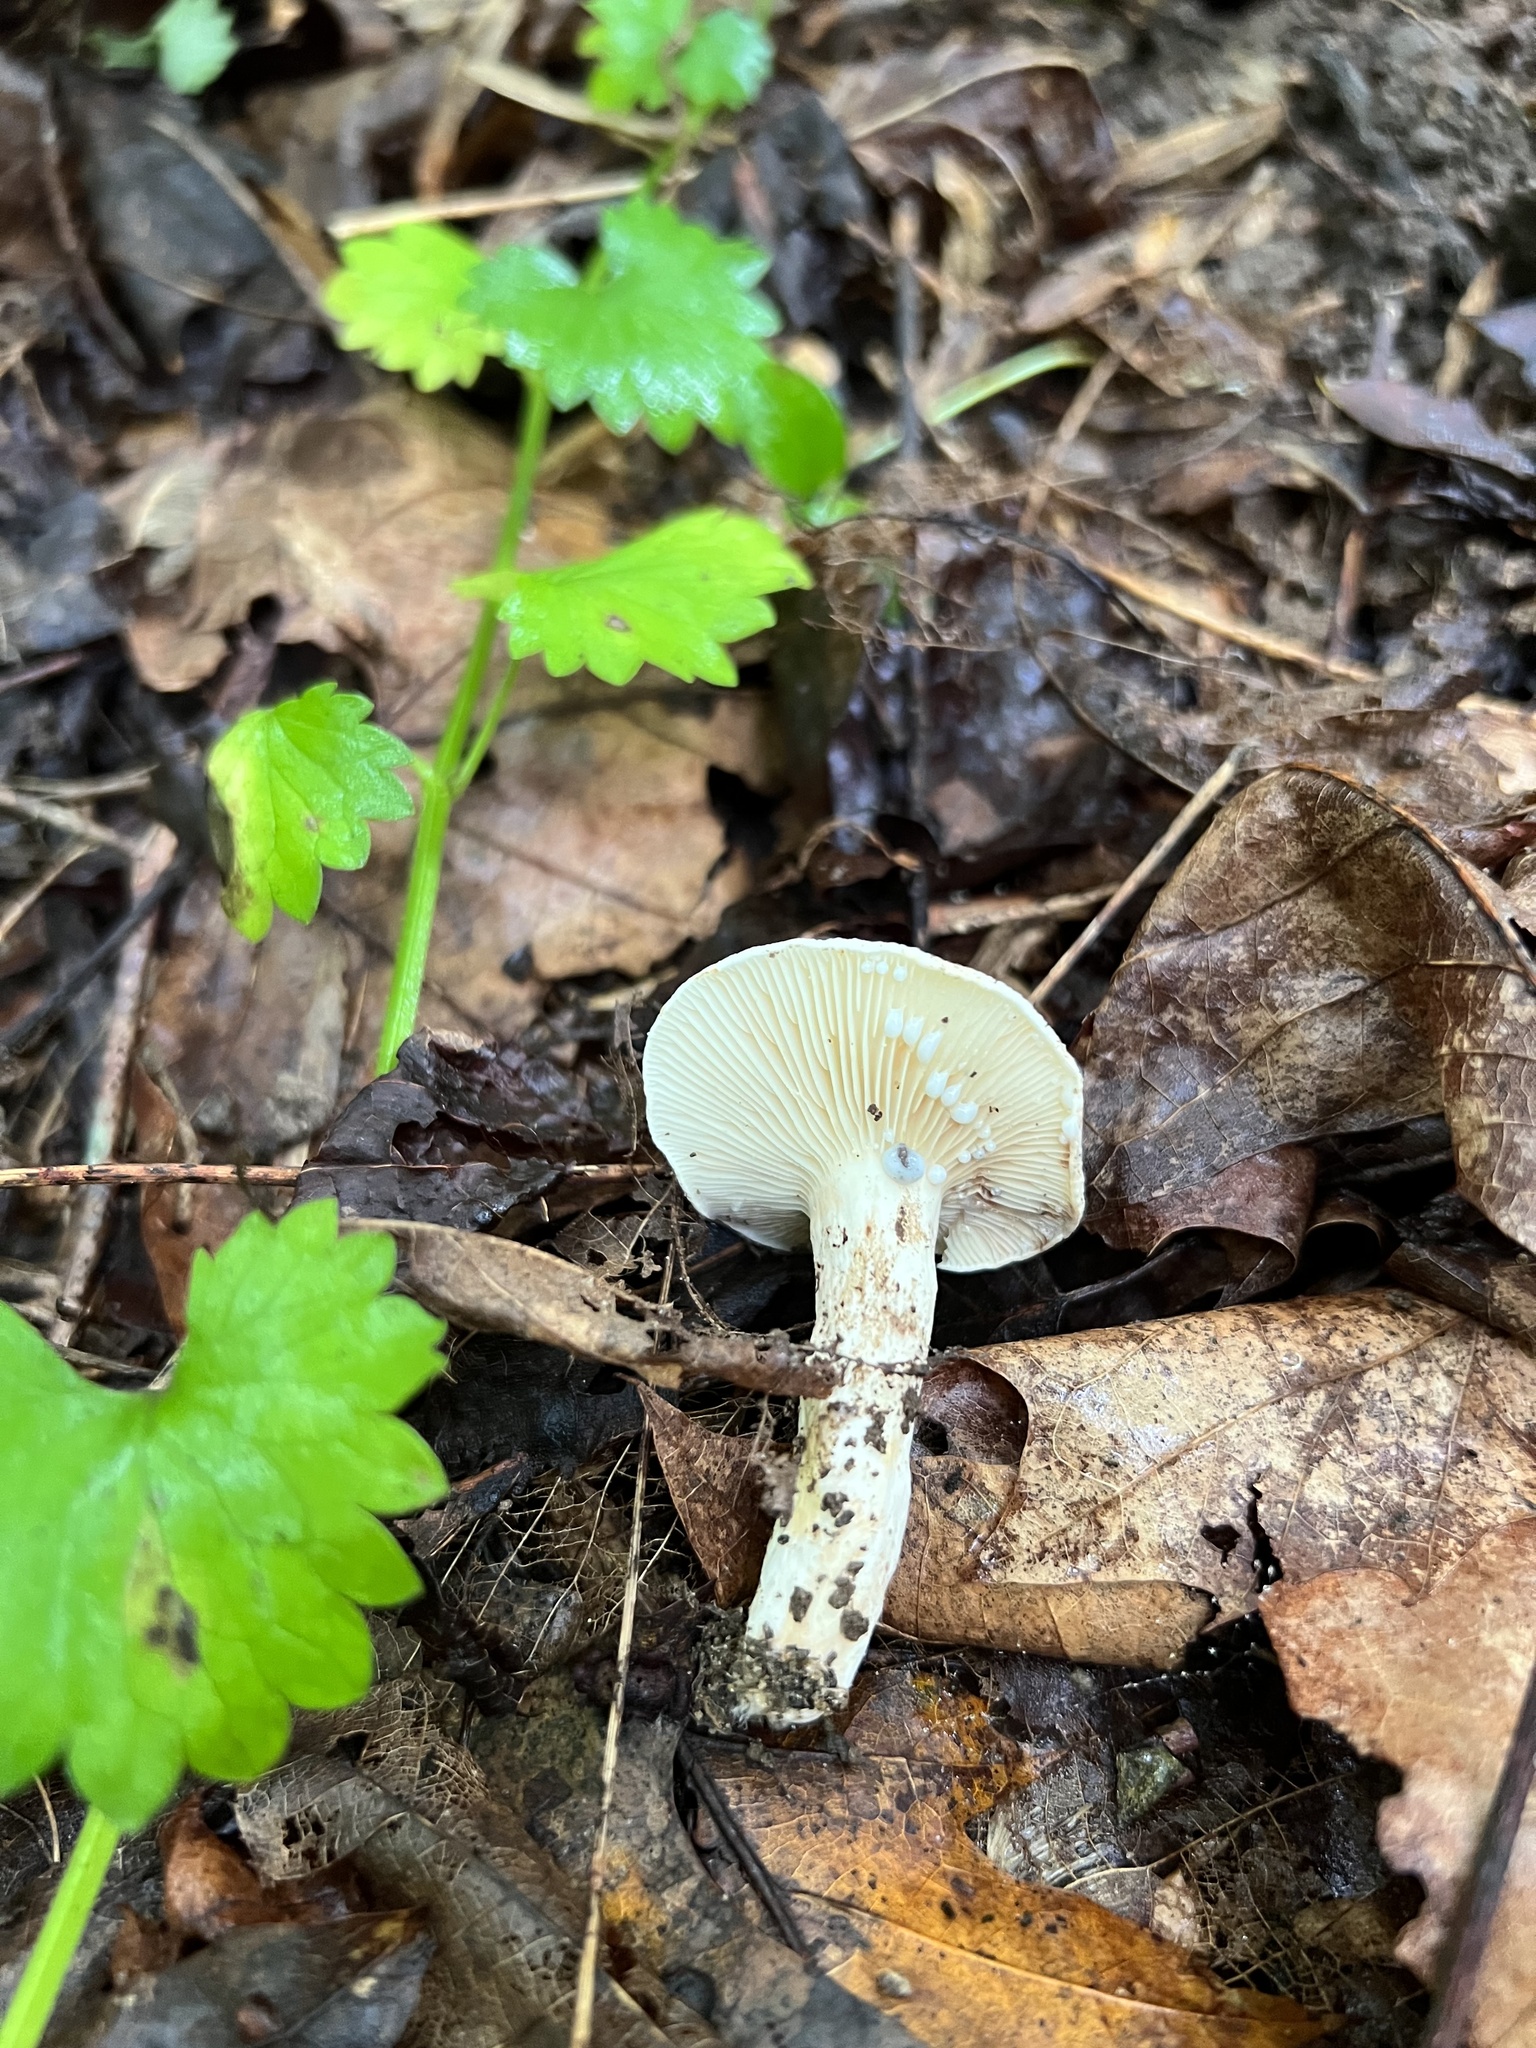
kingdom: Fungi
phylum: Basidiomycota
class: Agaricomycetes
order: Russulales
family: Russulaceae
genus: Lactifluus
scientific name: Lactifluus luteolus
